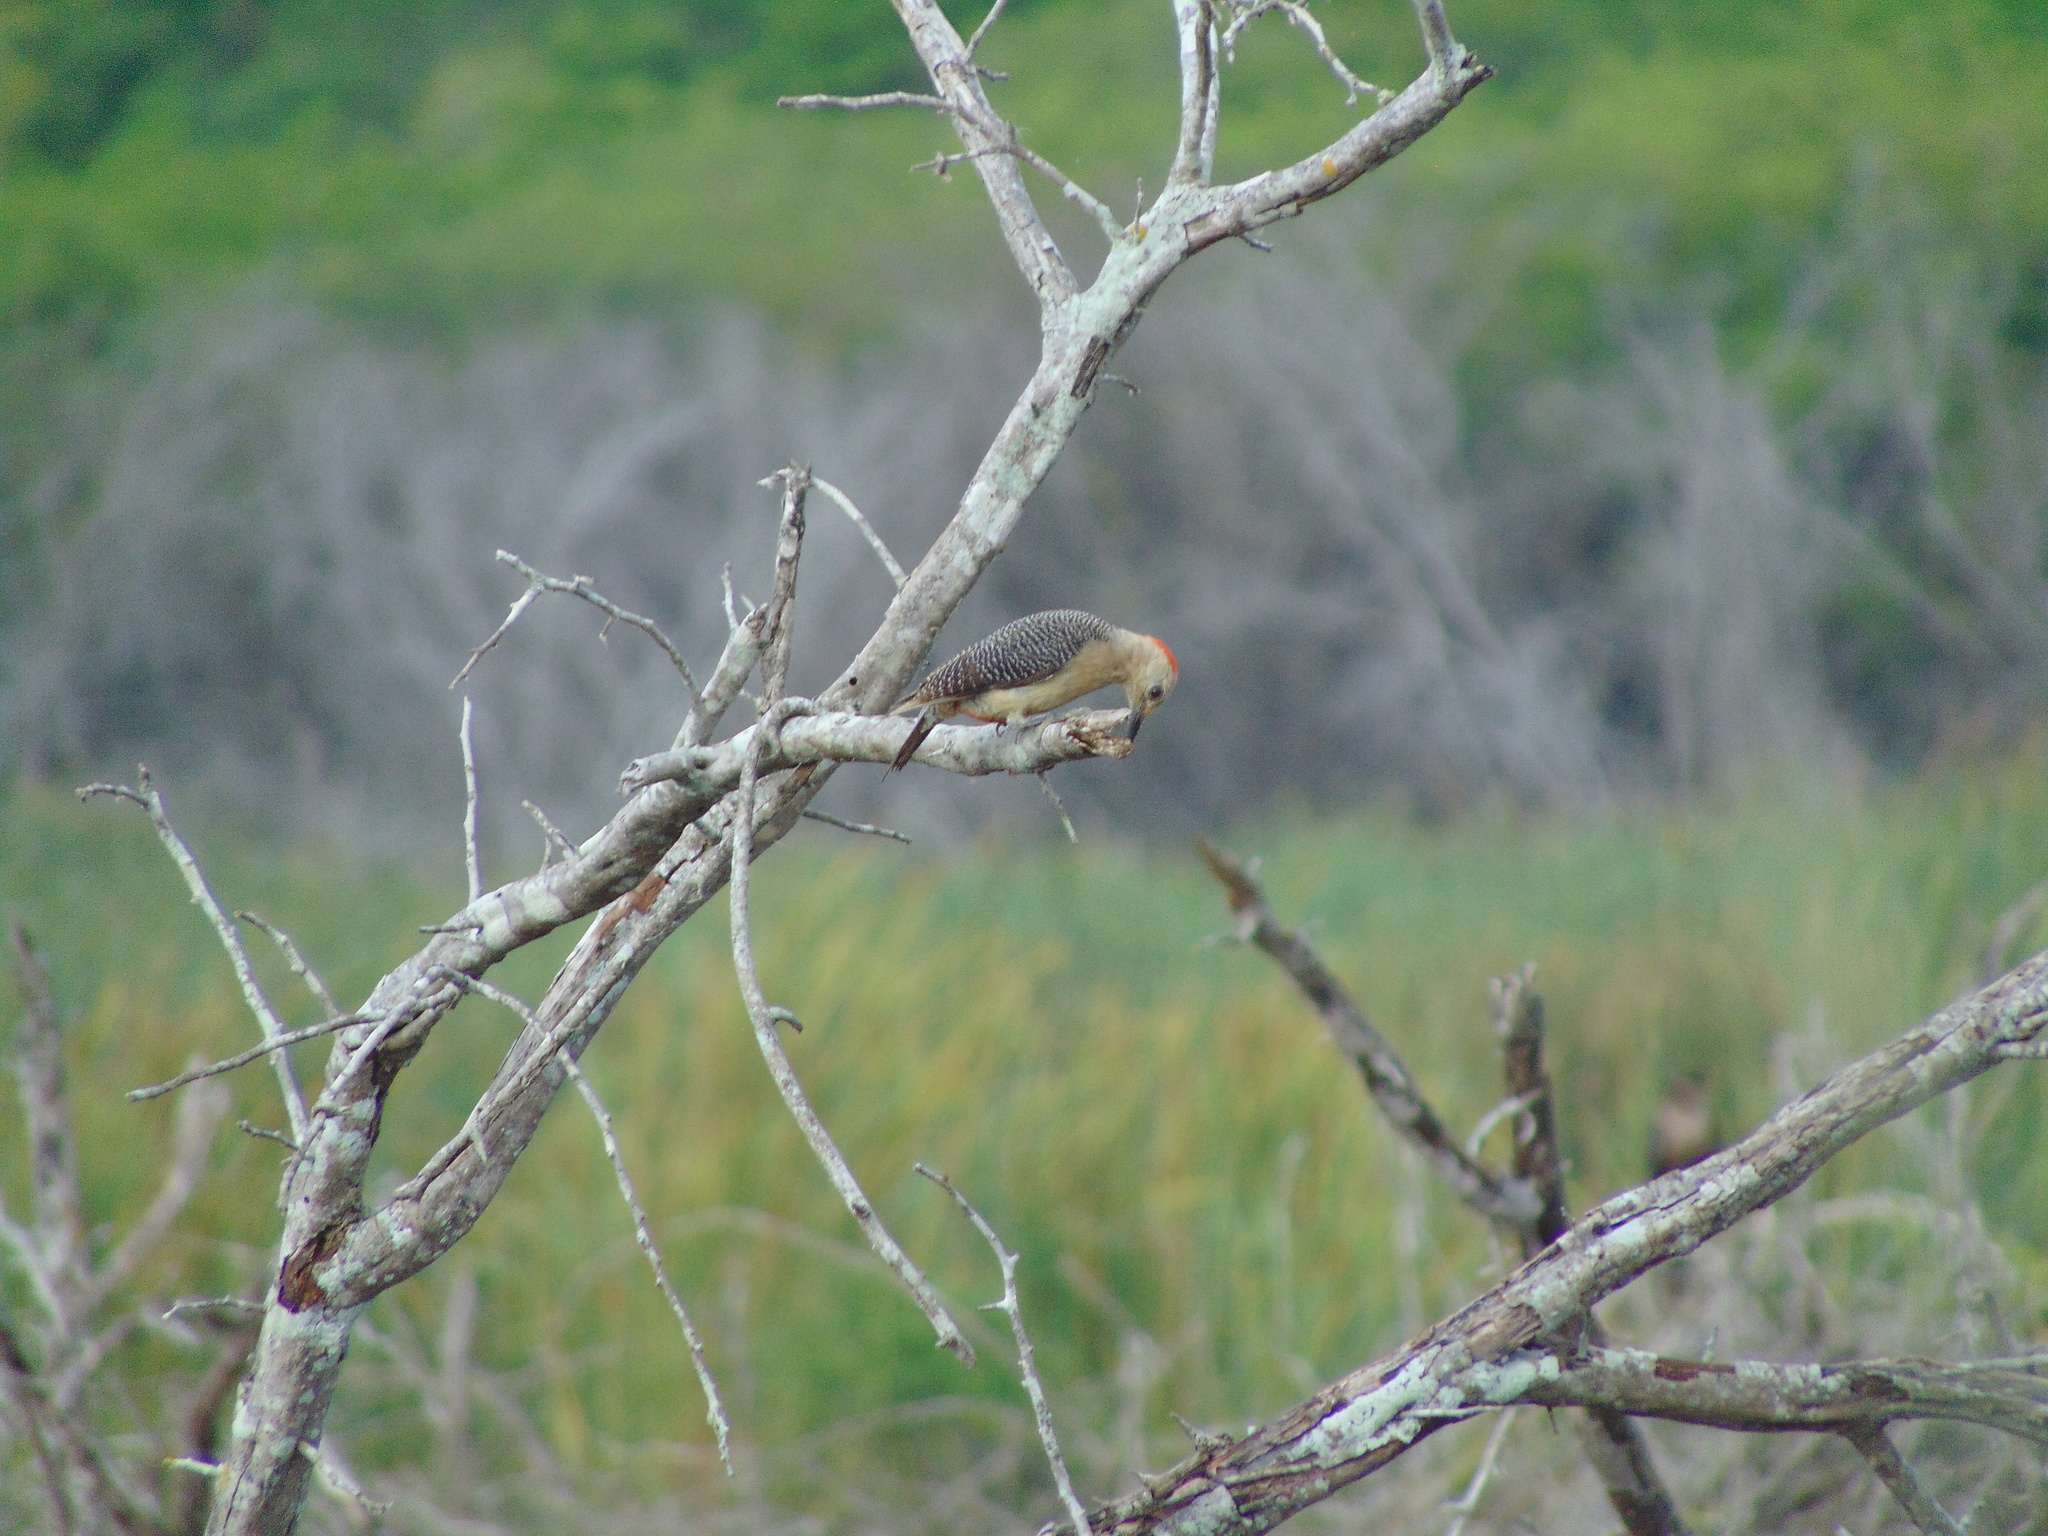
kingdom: Animalia
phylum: Chordata
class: Aves
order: Piciformes
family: Picidae
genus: Melanerpes
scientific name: Melanerpes aurifrons
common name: Golden-fronted woodpecker
